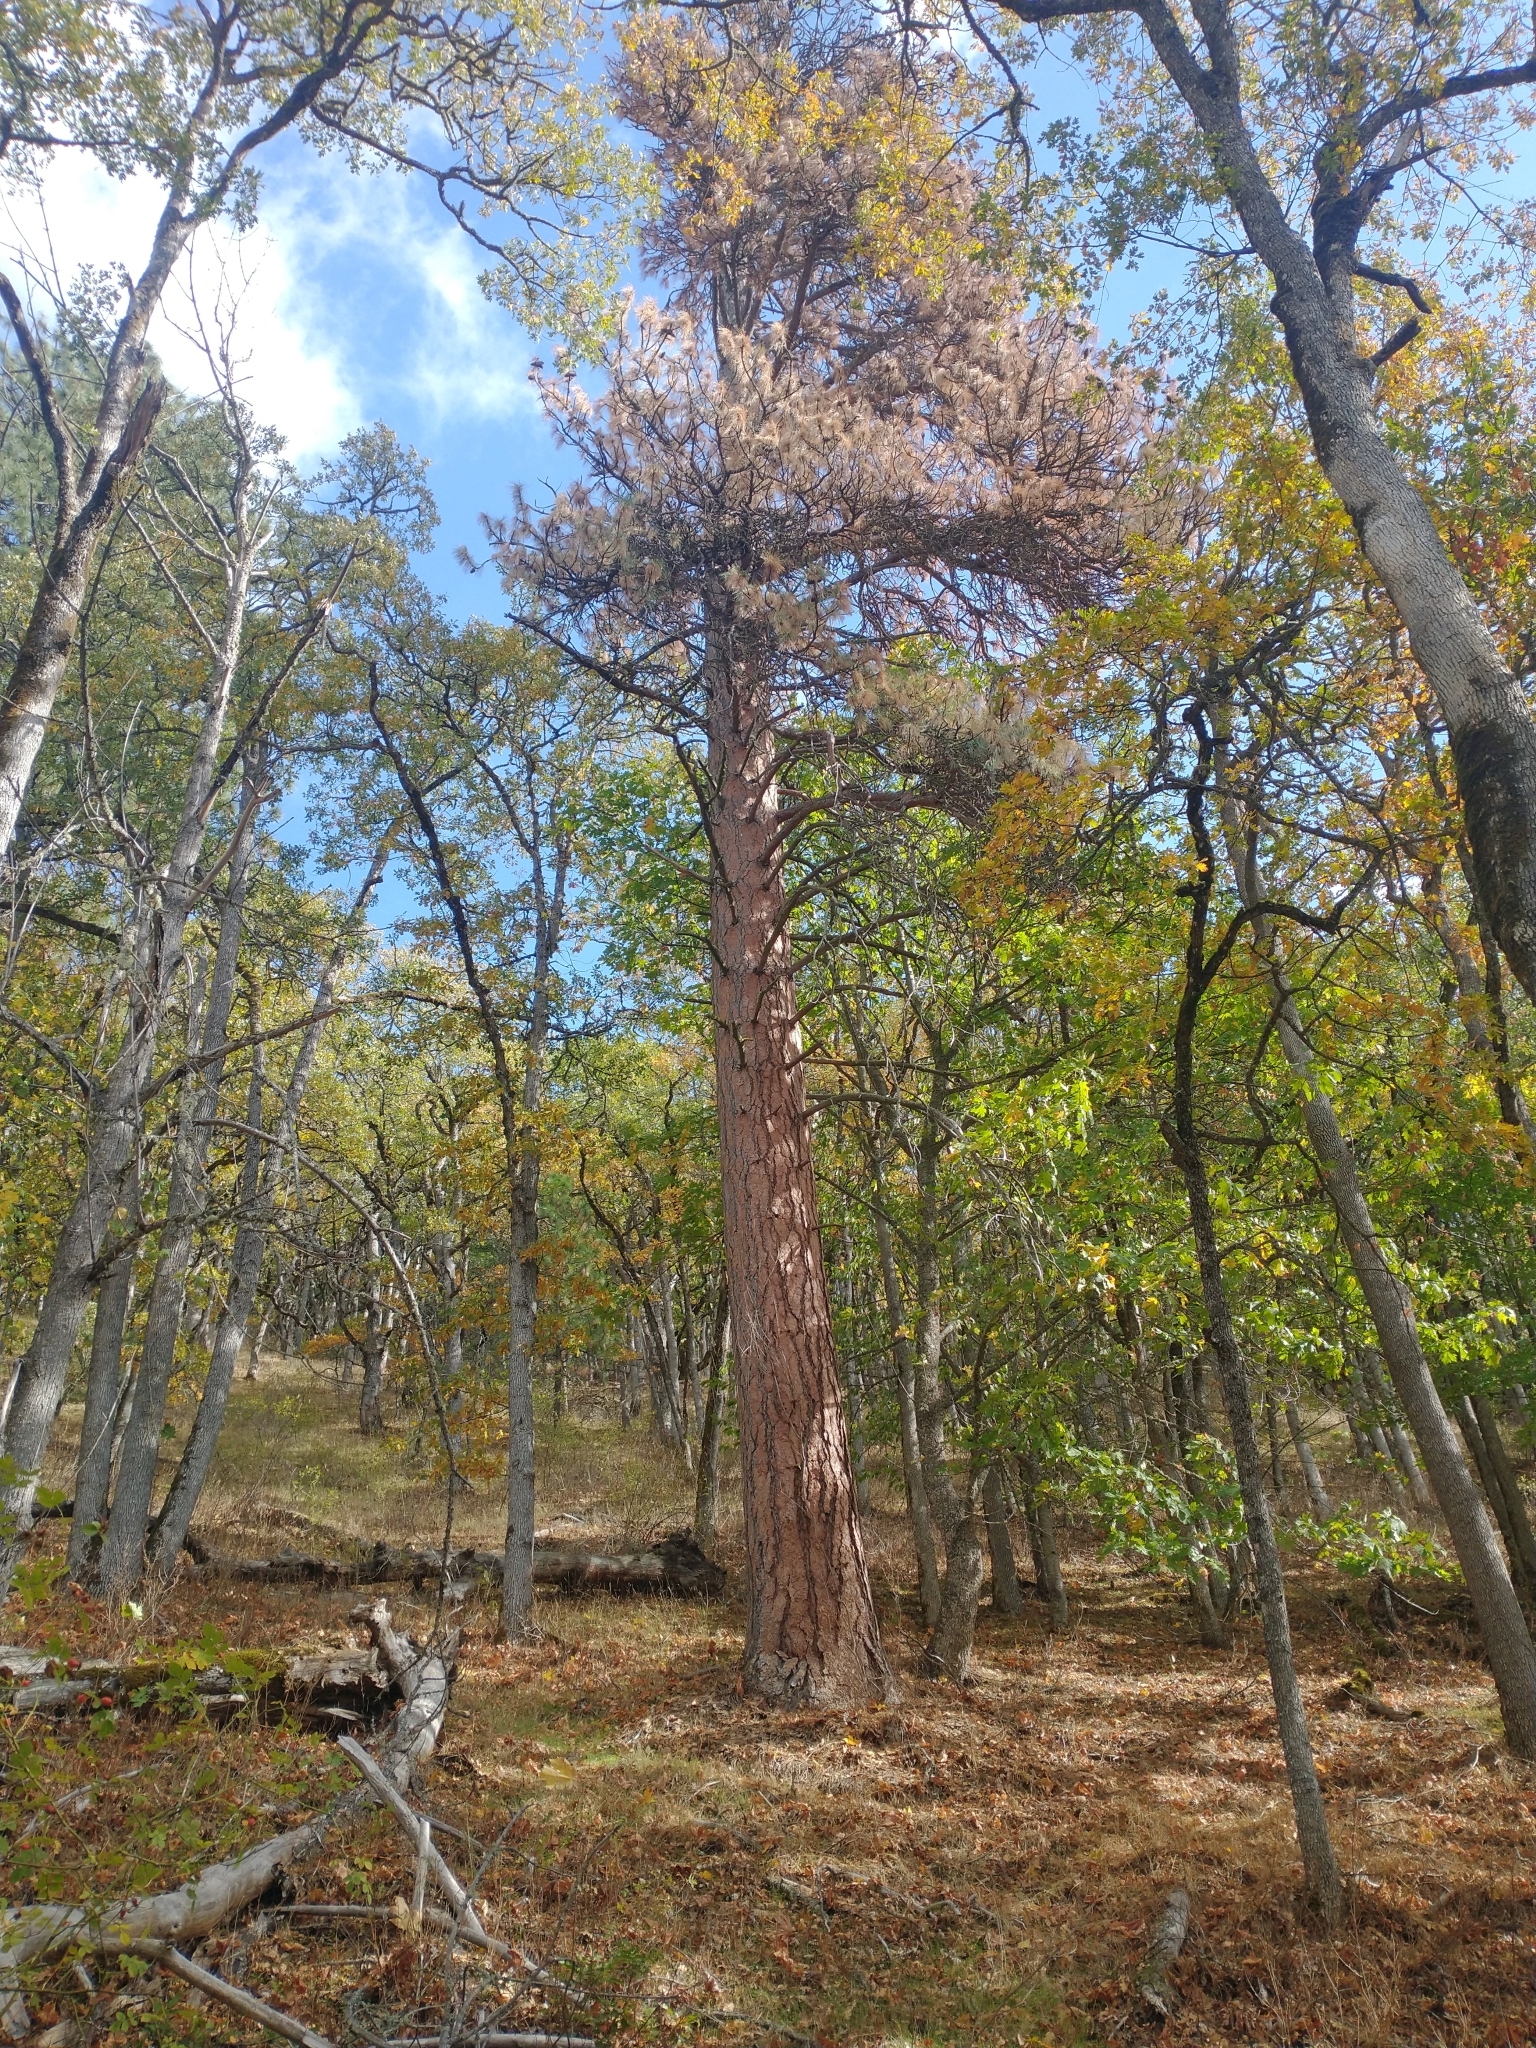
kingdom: Plantae
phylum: Tracheophyta
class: Pinopsida
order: Pinales
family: Pinaceae
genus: Pinus
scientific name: Pinus ponderosa
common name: Western yellow-pine
